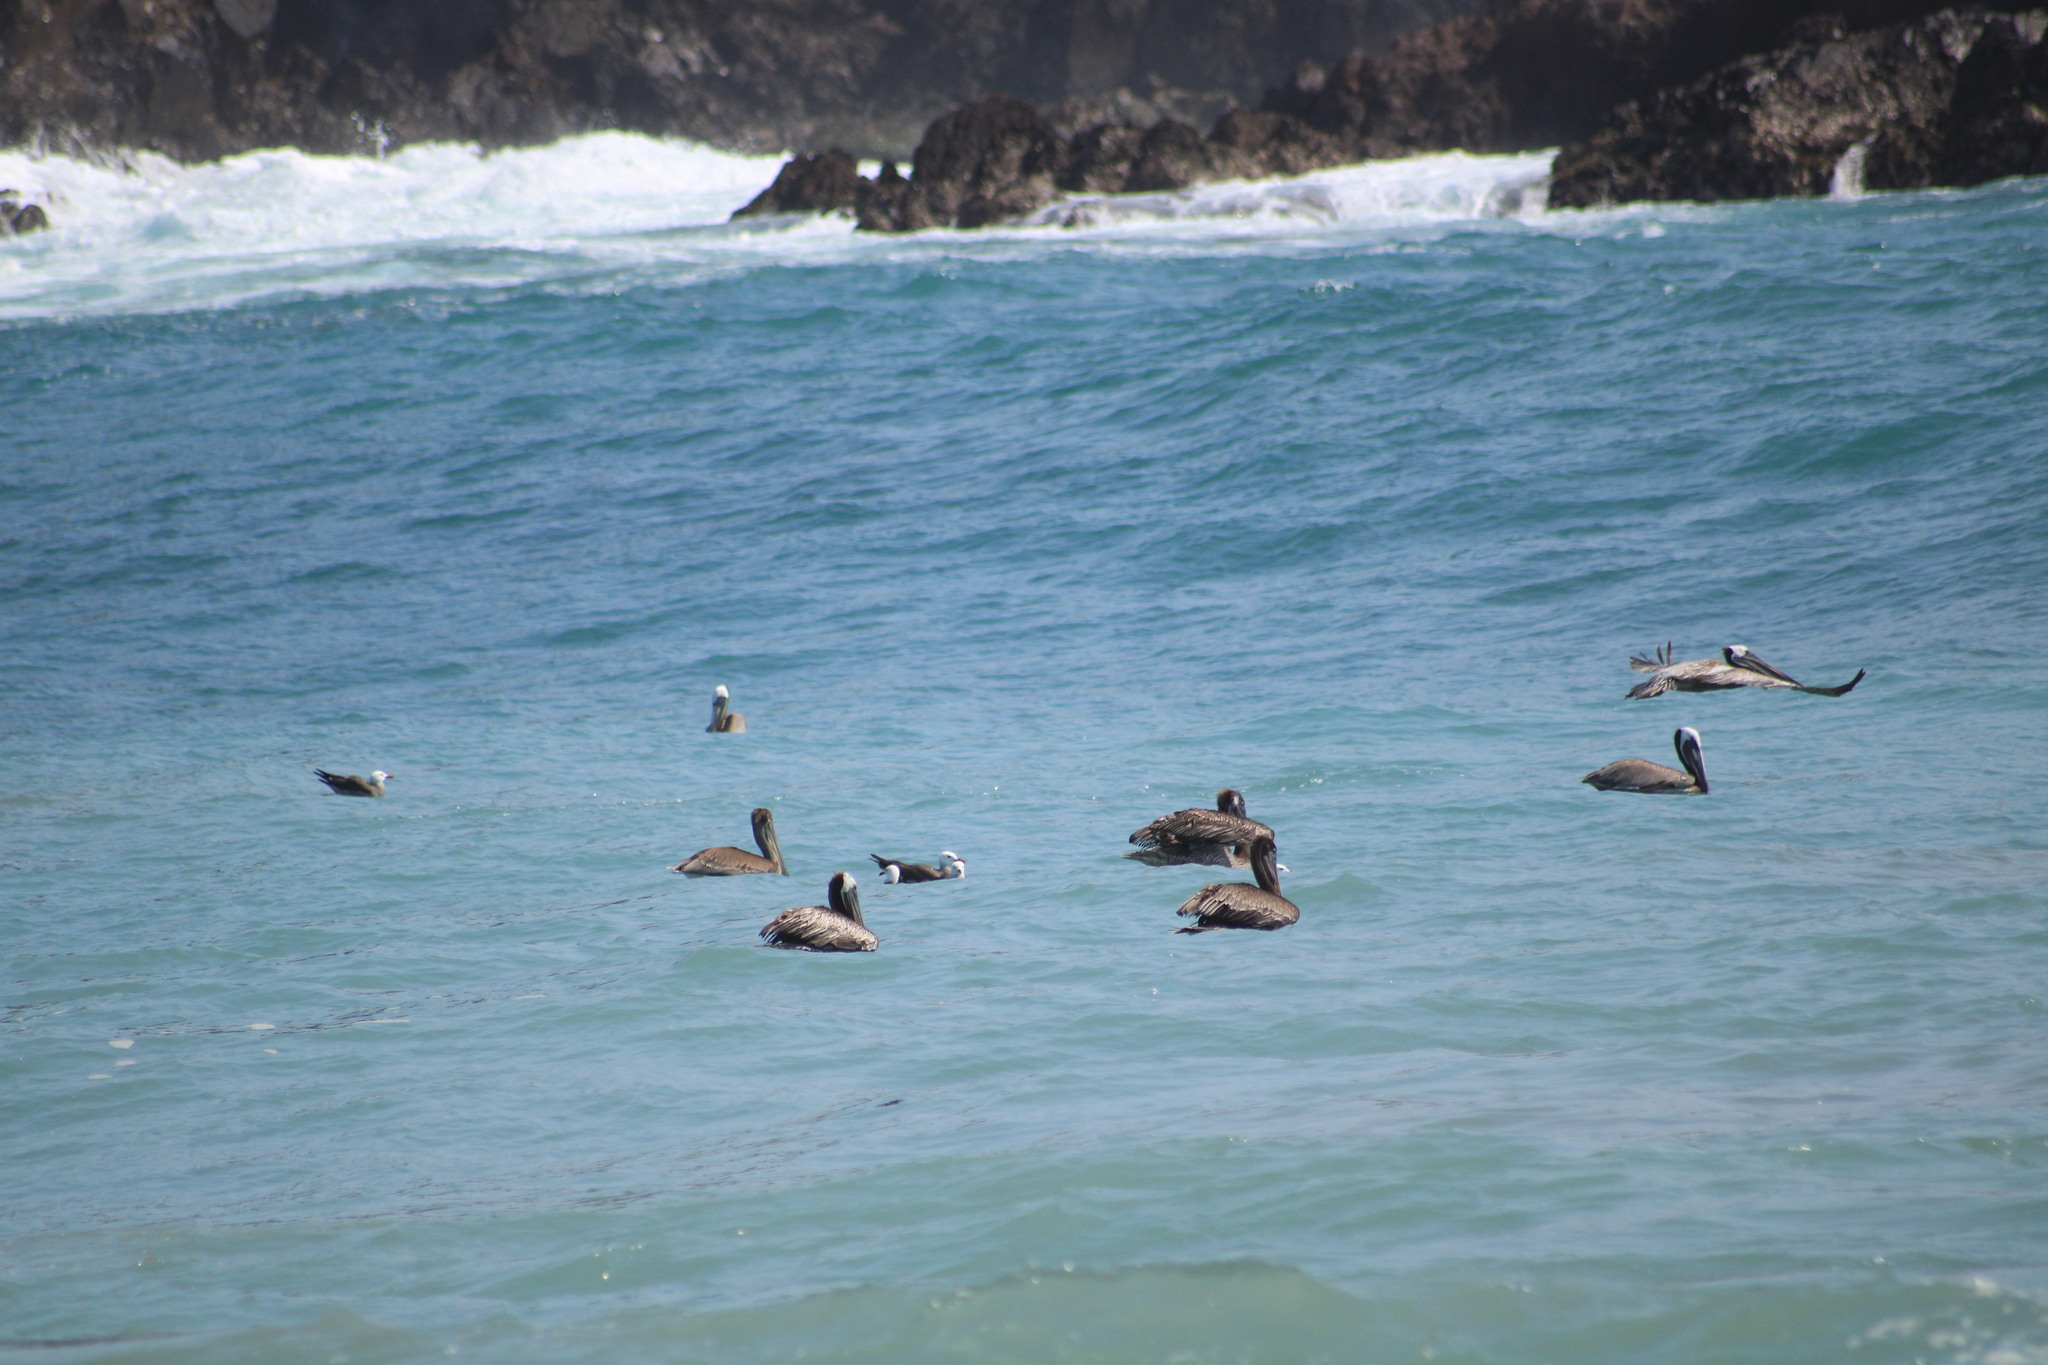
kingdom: Animalia
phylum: Chordata
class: Aves
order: Pelecaniformes
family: Pelecanidae
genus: Pelecanus
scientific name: Pelecanus occidentalis
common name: Brown pelican
